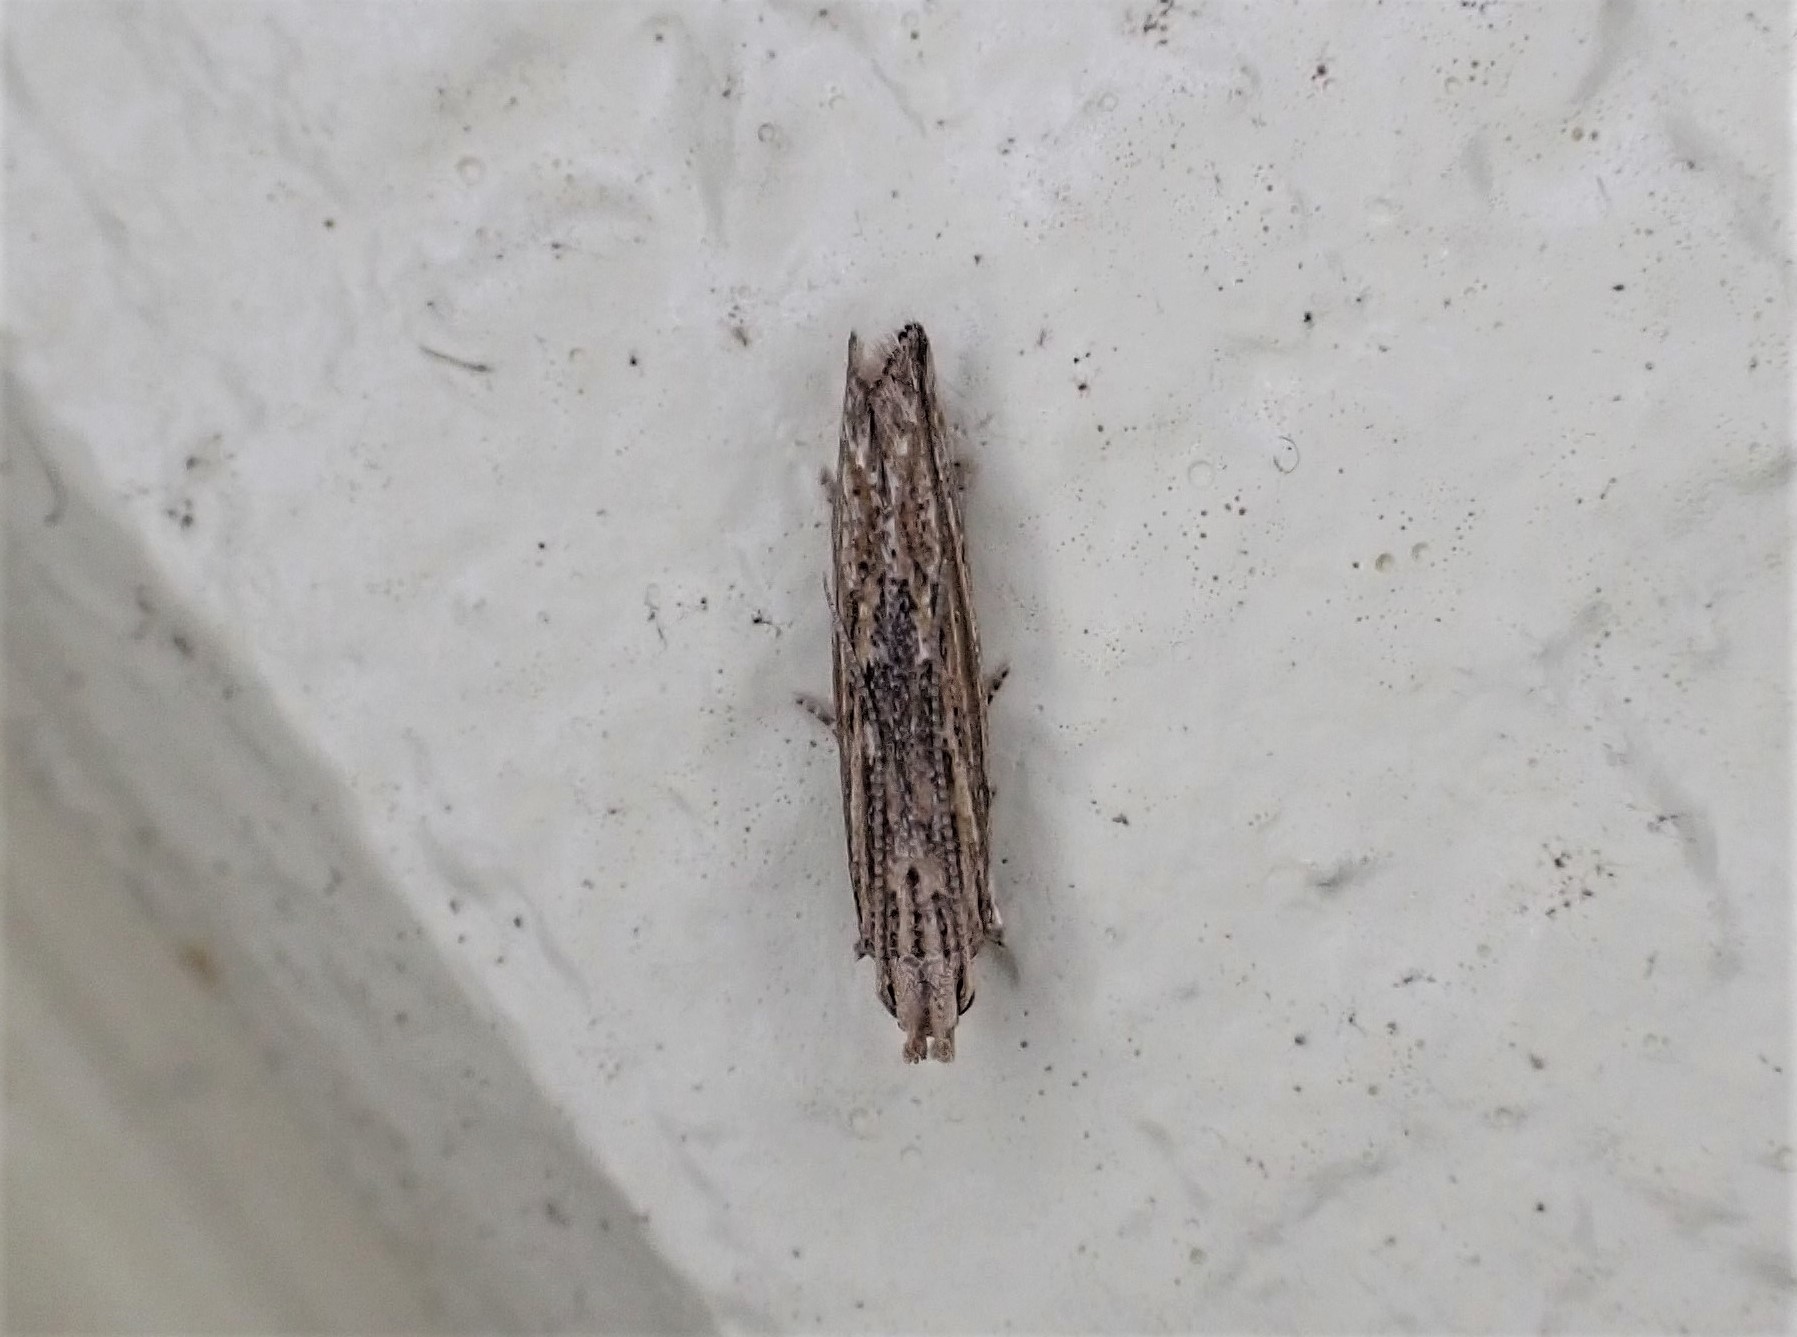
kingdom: Animalia
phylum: Arthropoda
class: Insecta
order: Lepidoptera
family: Gelechiidae
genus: Symmetrischema
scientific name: Symmetrischema striatella
